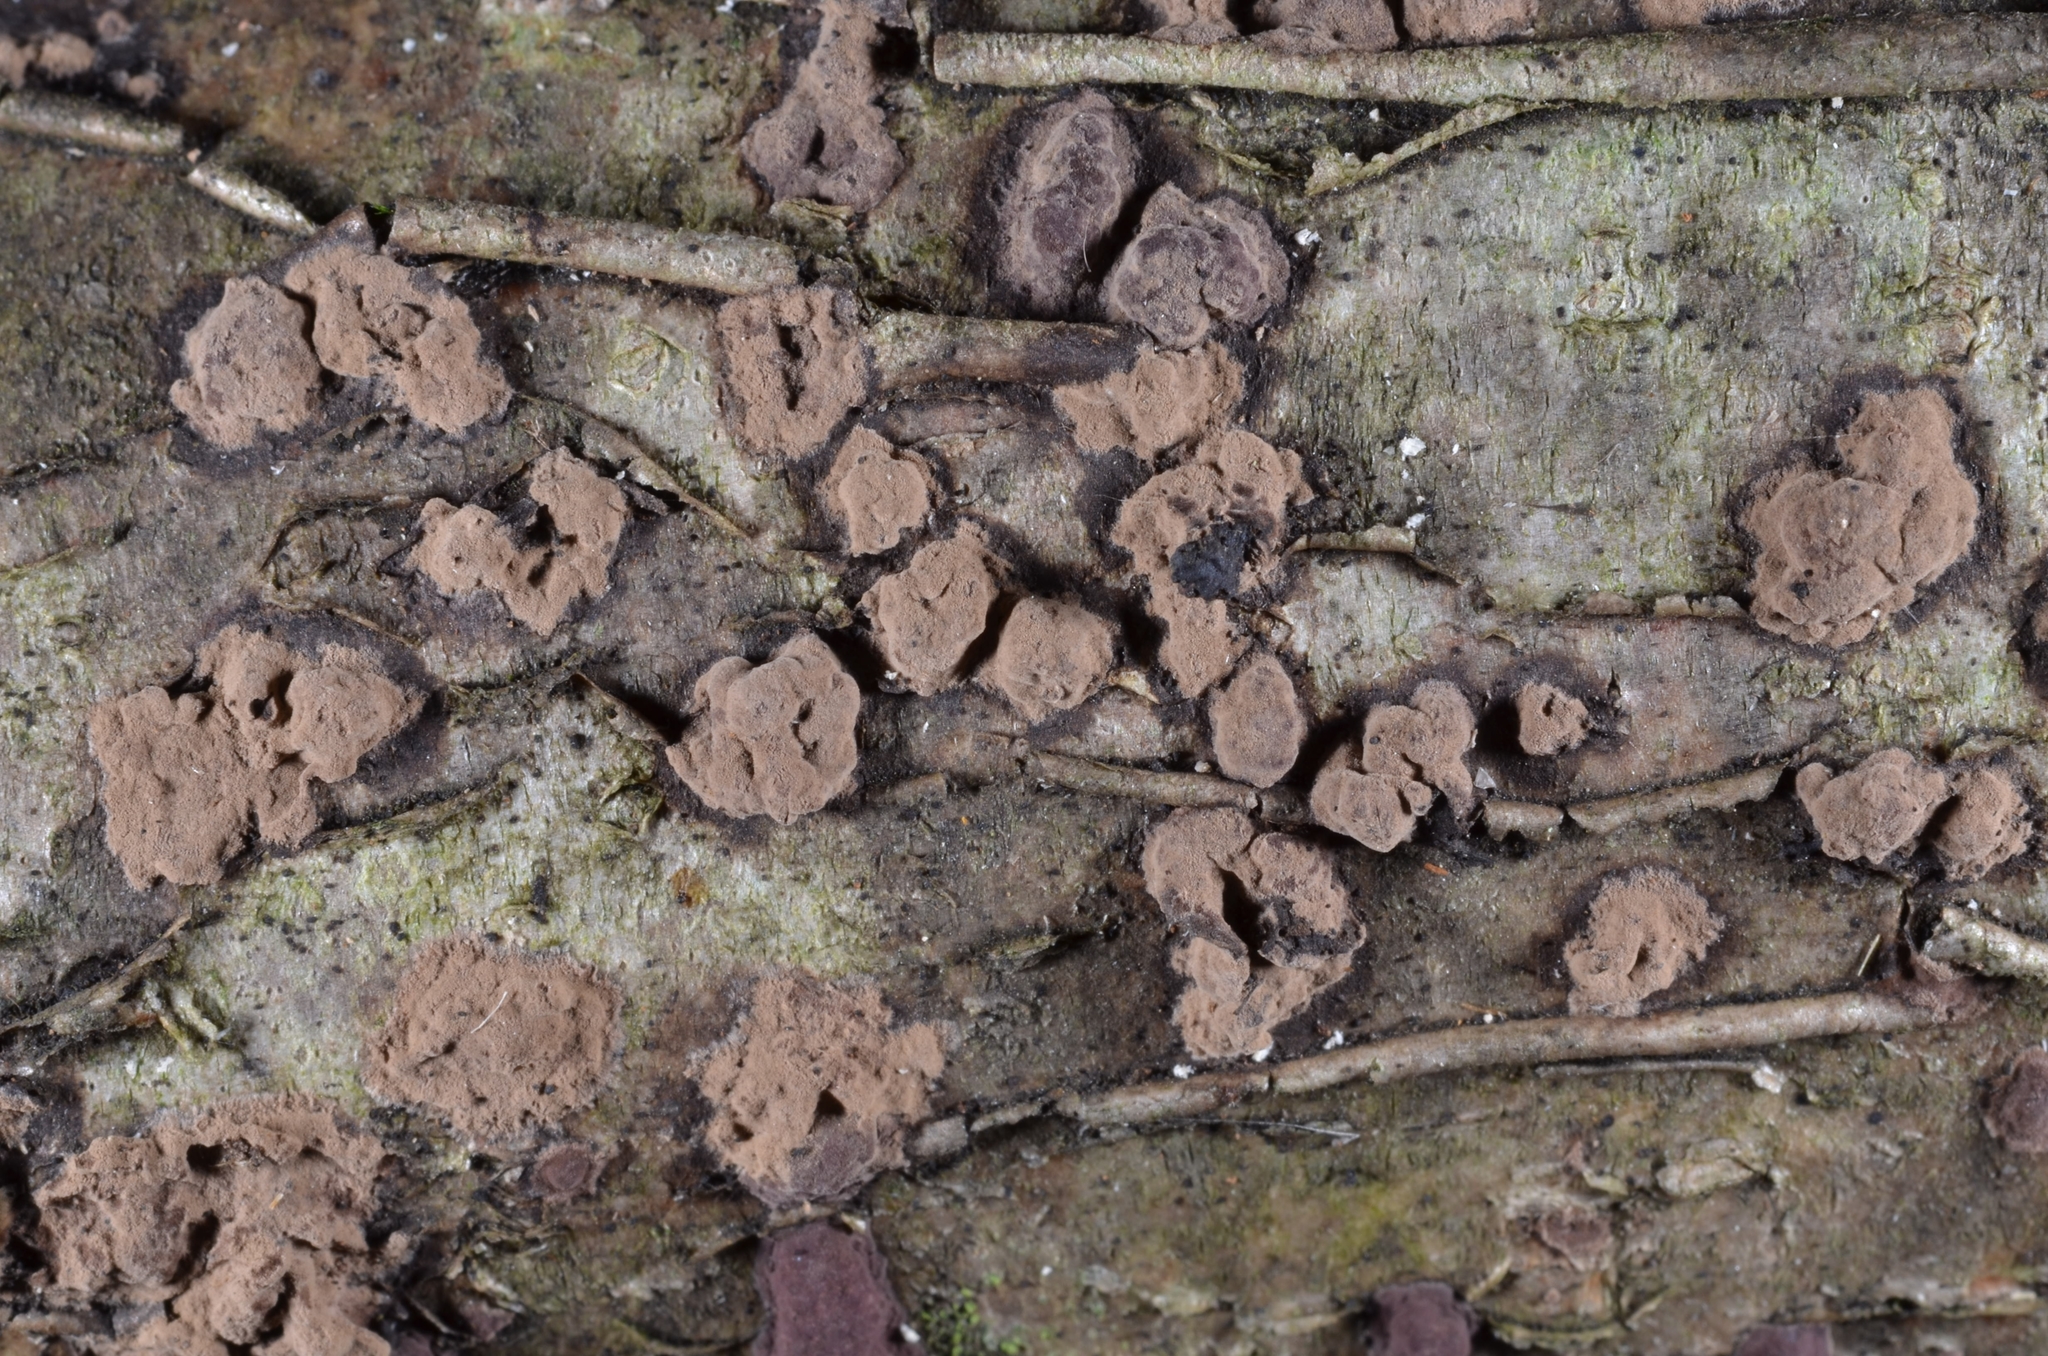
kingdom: Fungi
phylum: Ascomycota
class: Sordariomycetes
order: Xylariales
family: Hypoxylaceae
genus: Hypoxylon
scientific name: Hypoxylon fuscum
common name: Hazel woodwart
